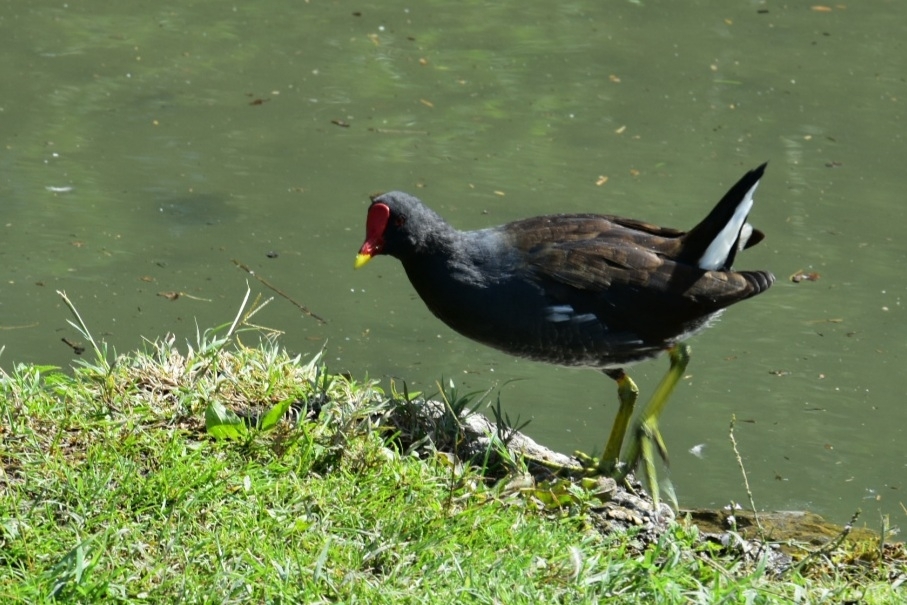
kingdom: Animalia
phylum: Chordata
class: Aves
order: Gruiformes
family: Rallidae
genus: Gallinula
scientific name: Gallinula chloropus
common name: Common moorhen
